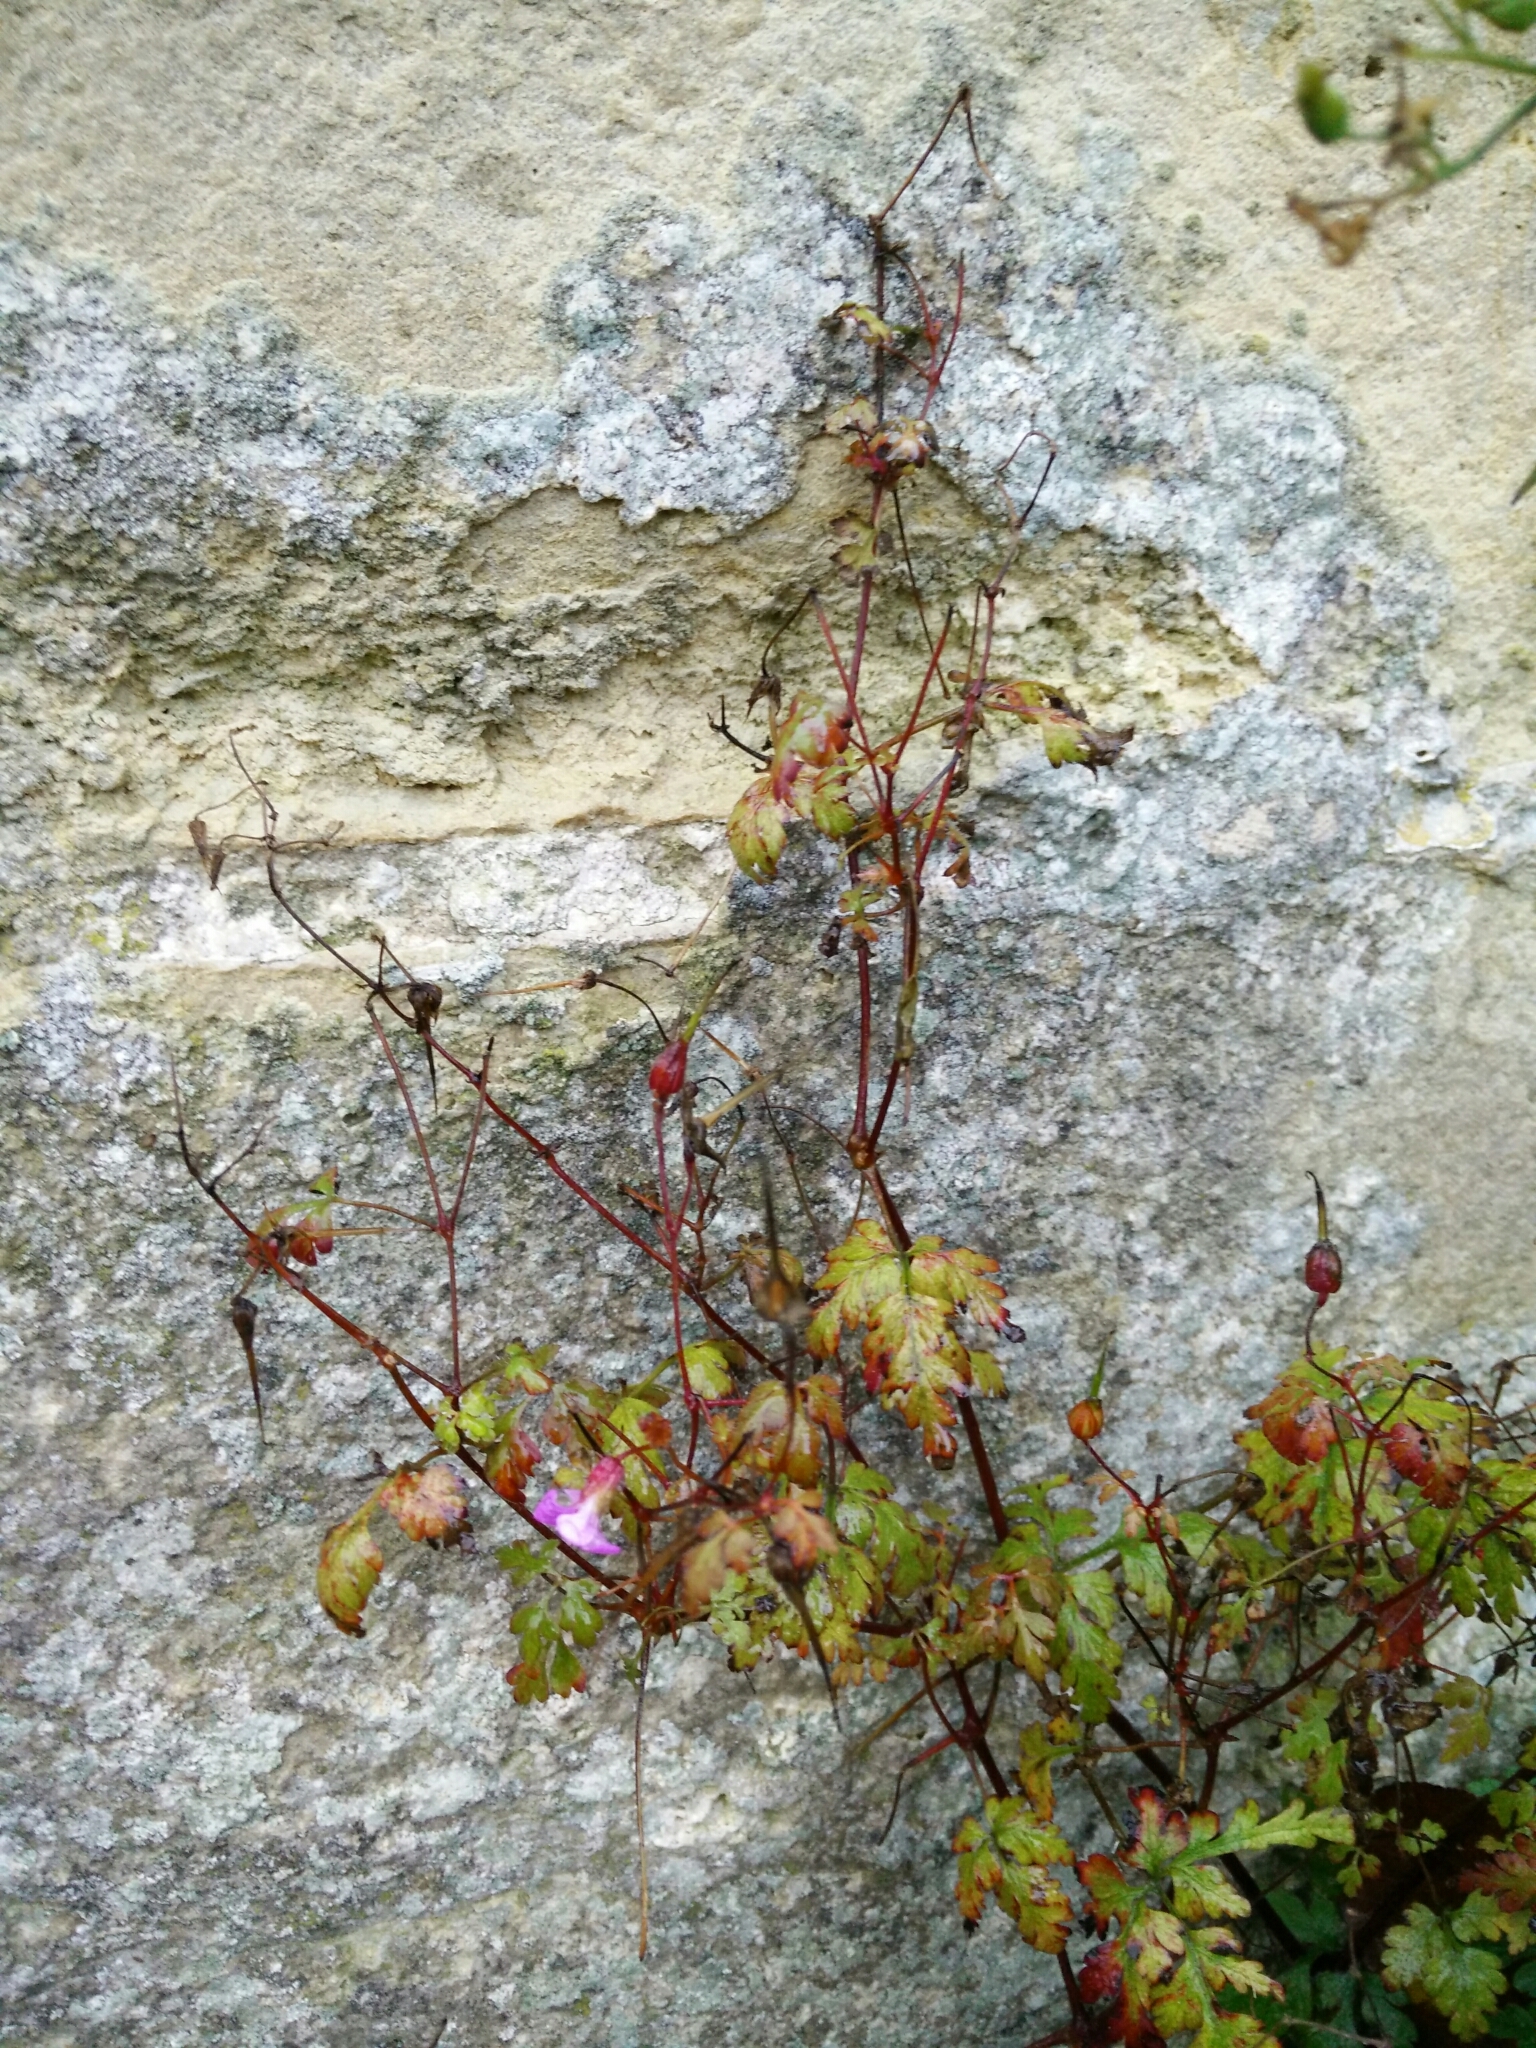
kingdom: Plantae
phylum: Tracheophyta
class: Magnoliopsida
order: Geraniales
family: Geraniaceae
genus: Geranium
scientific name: Geranium robertianum
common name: Herb-robert
